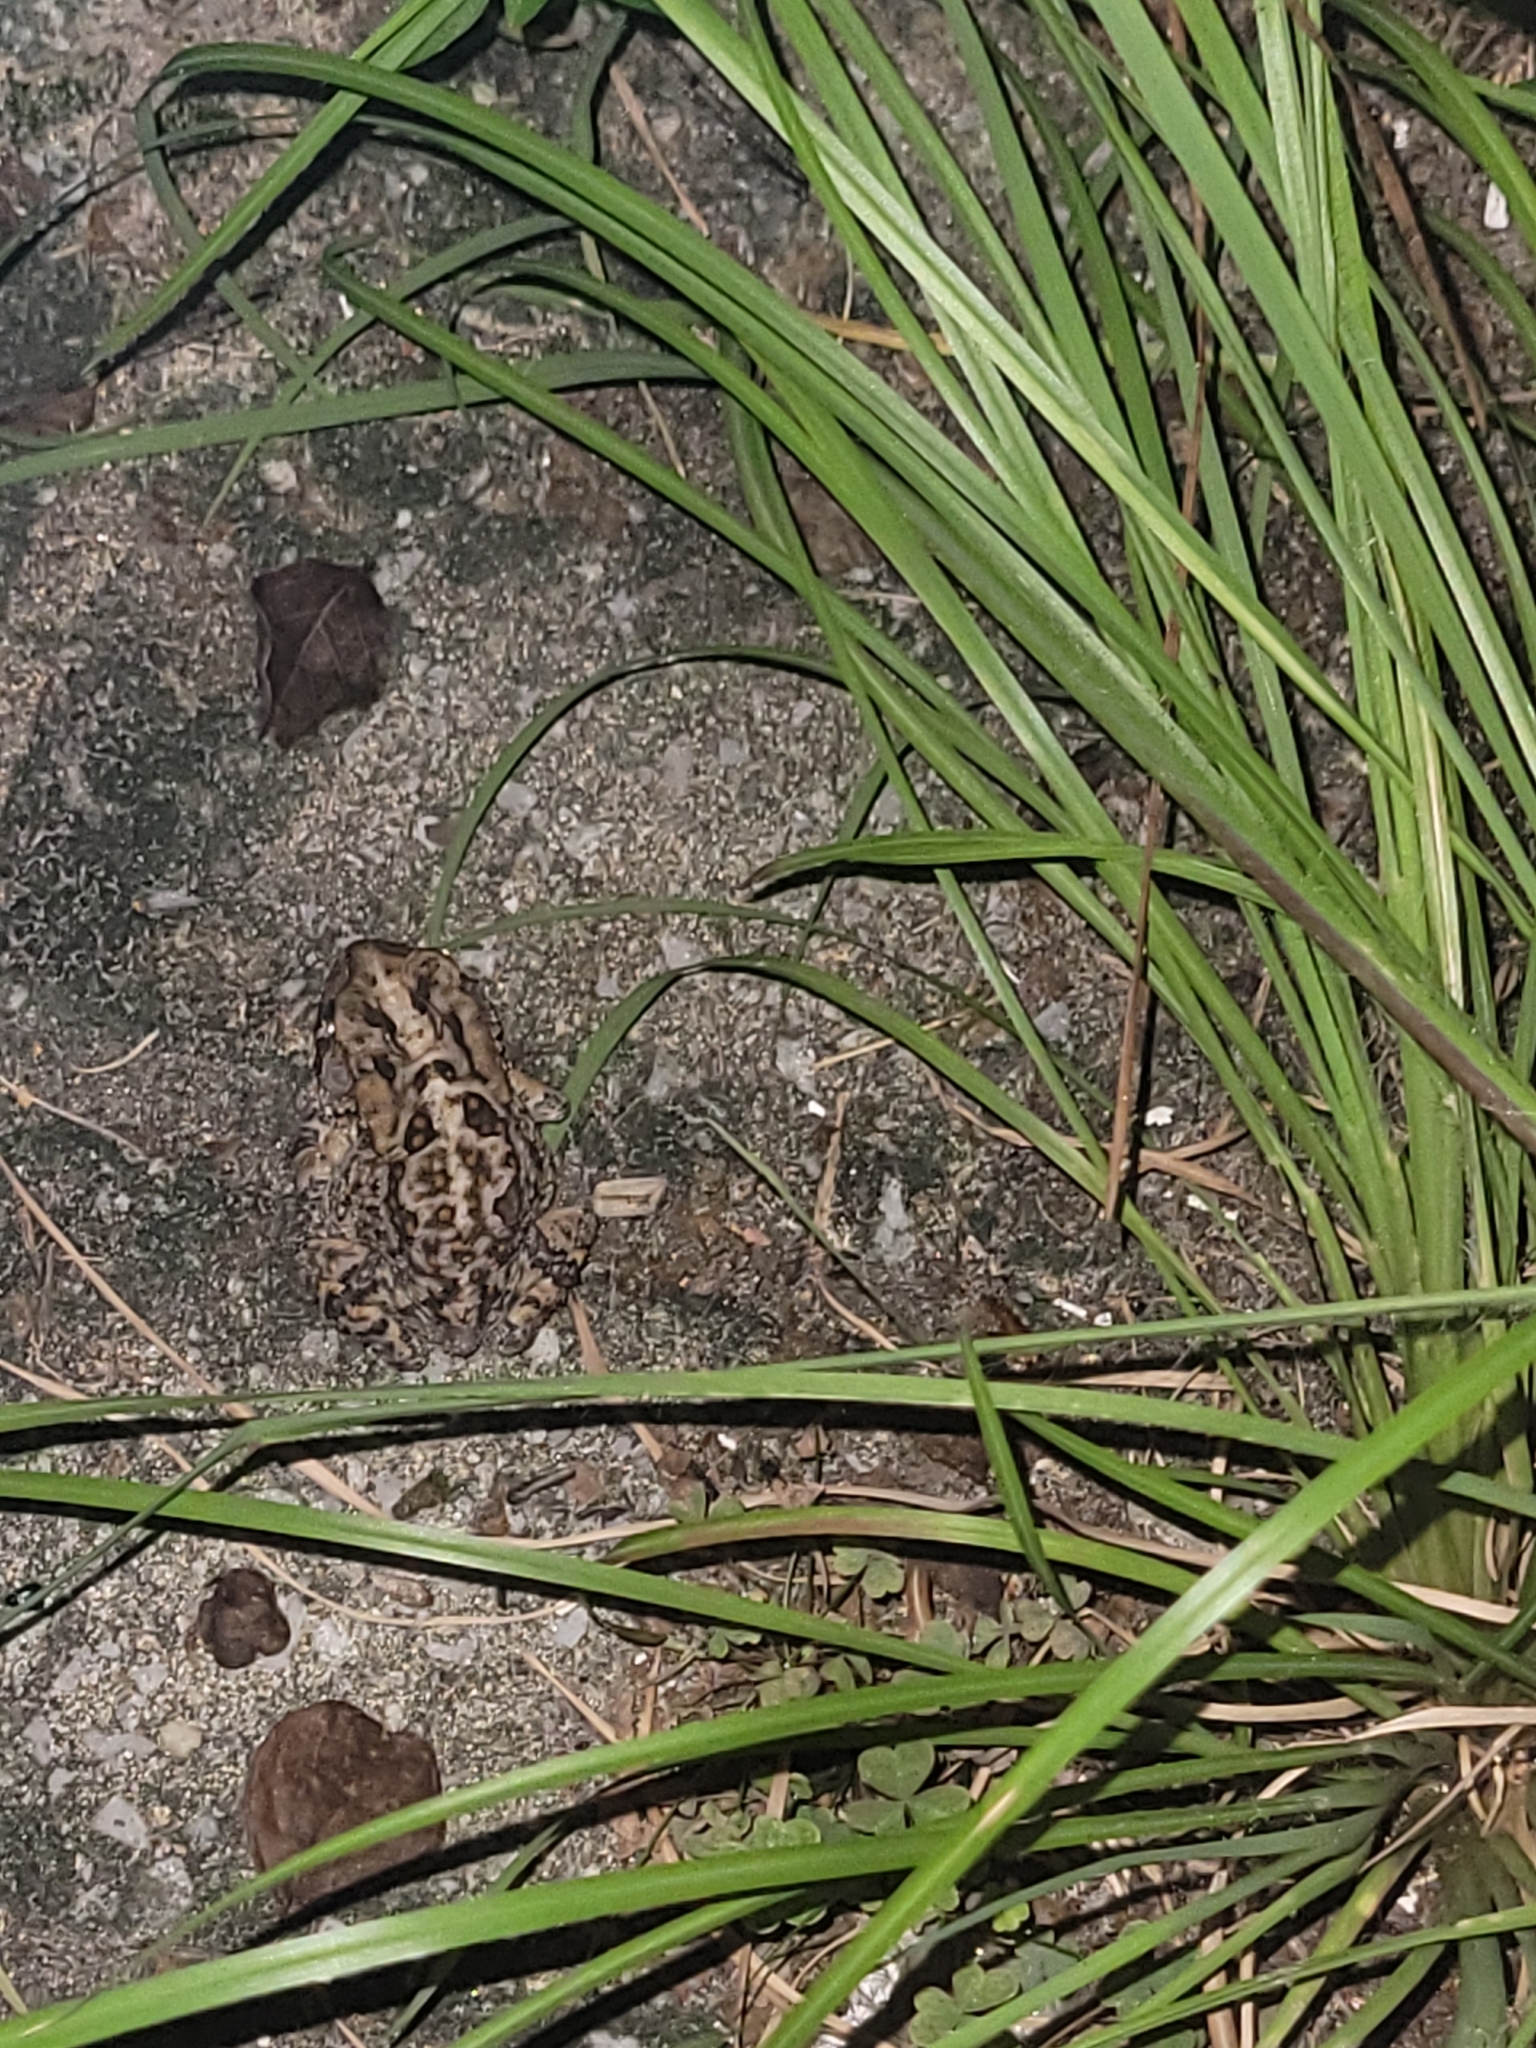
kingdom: Animalia
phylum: Chordata
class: Amphibia
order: Anura
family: Bufonidae
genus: Anaxyrus
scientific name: Anaxyrus terrestris
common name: Southern toad
